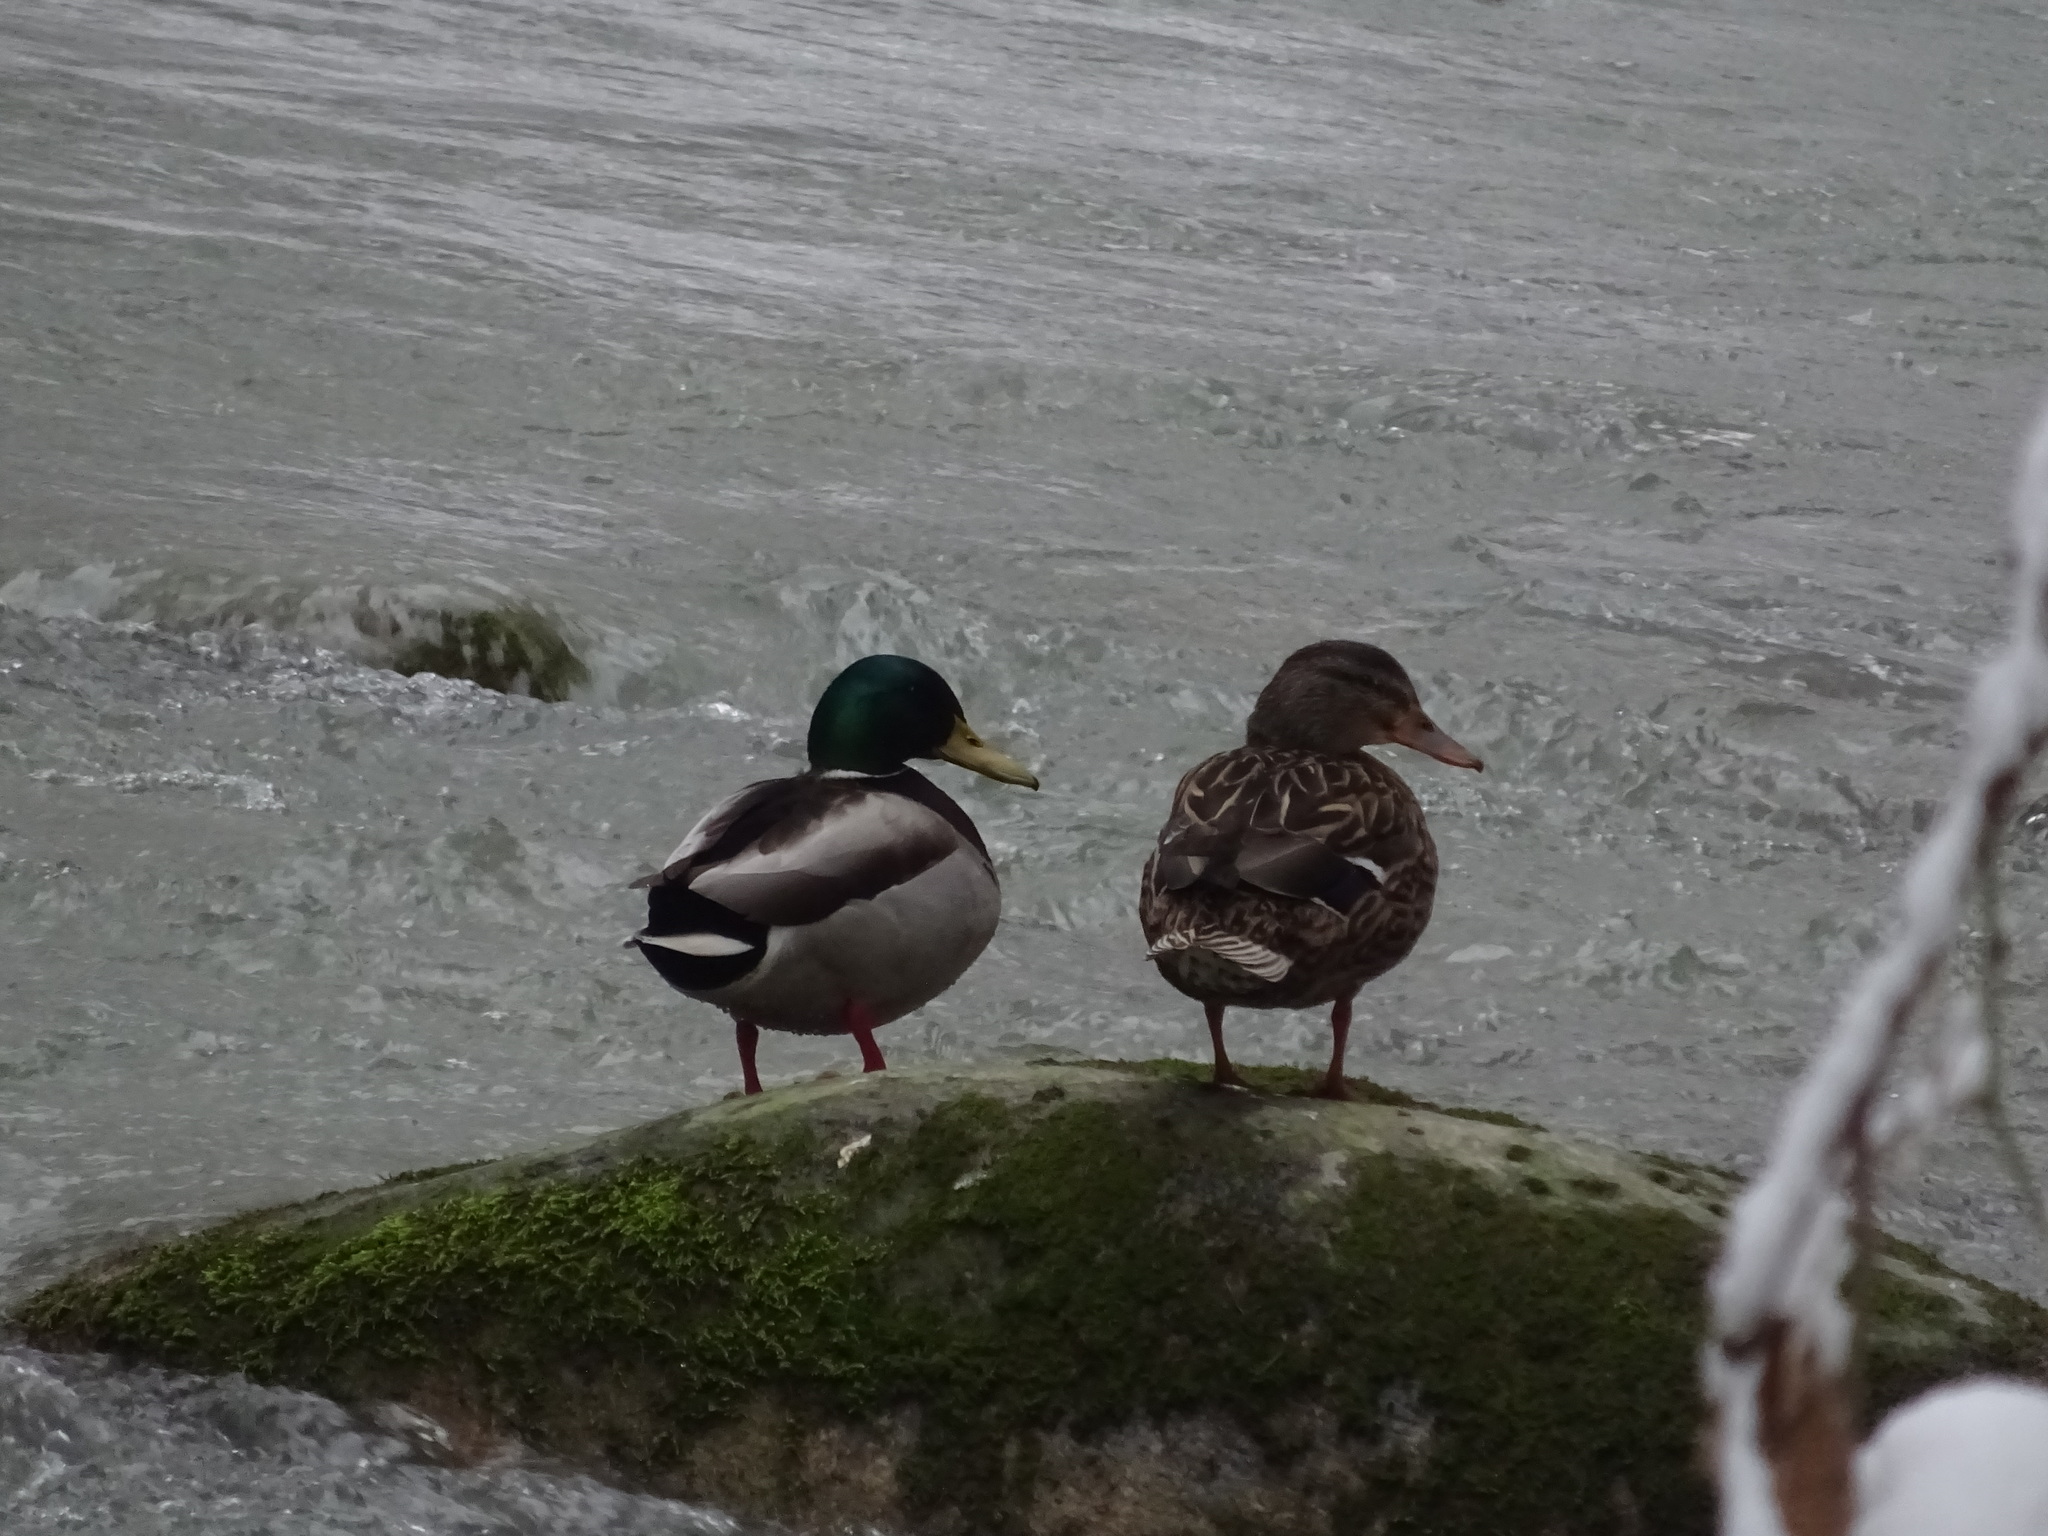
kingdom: Animalia
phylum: Chordata
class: Aves
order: Anseriformes
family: Anatidae
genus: Anas
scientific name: Anas platyrhynchos
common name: Mallard
